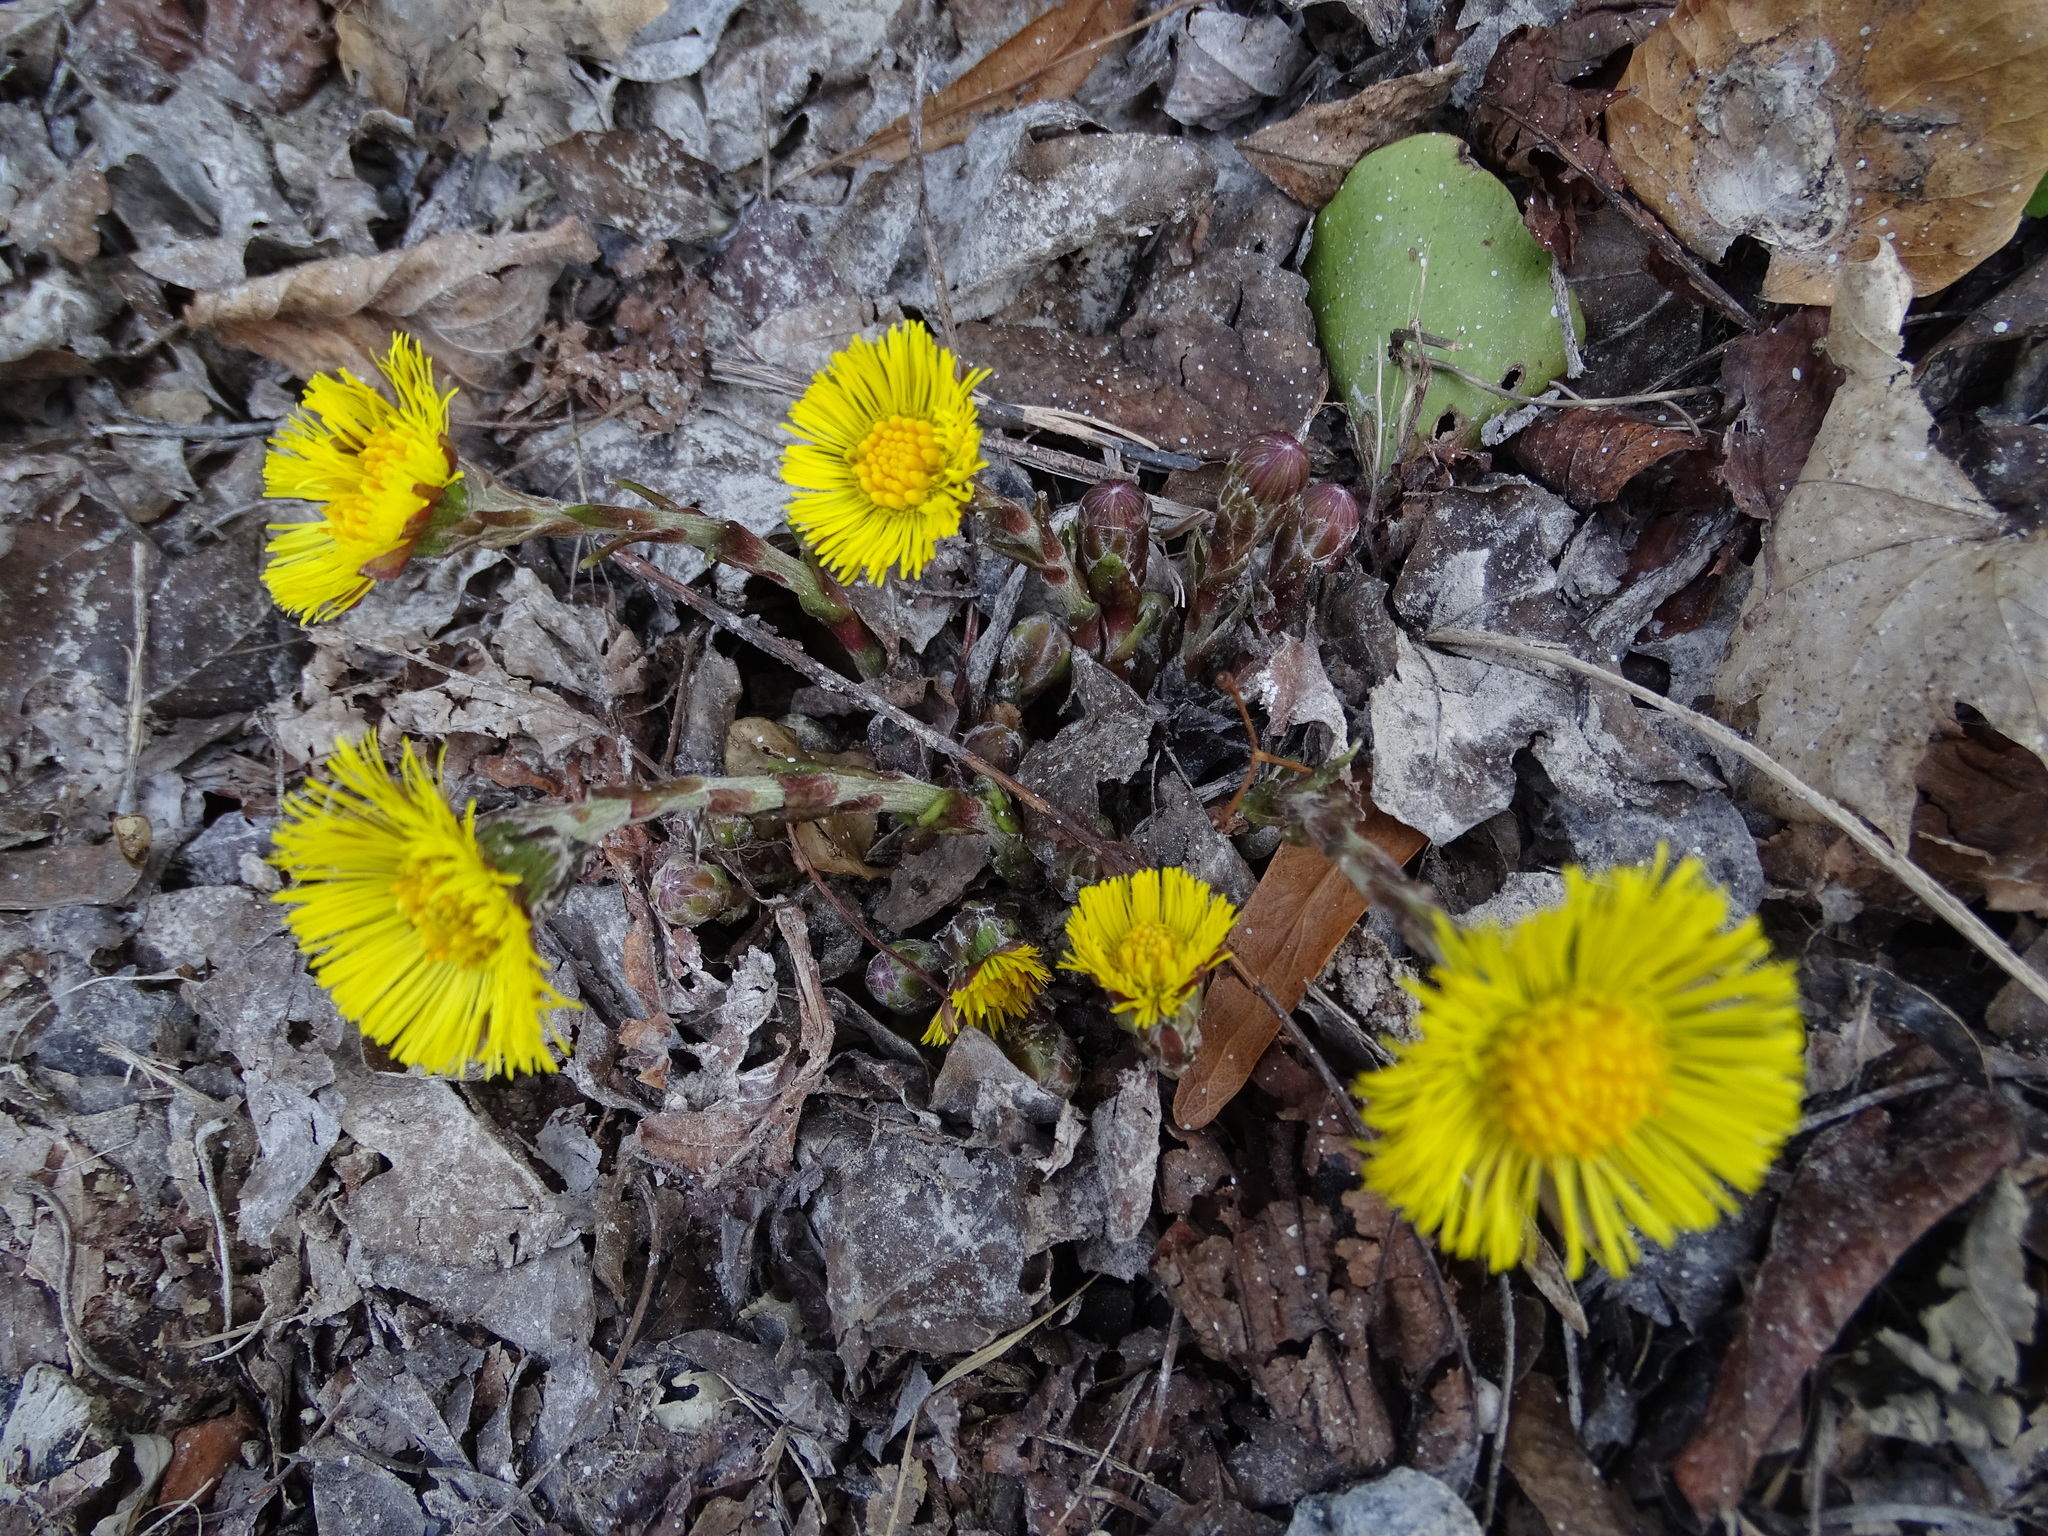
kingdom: Plantae
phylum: Tracheophyta
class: Magnoliopsida
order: Asterales
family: Asteraceae
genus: Tussilago
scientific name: Tussilago farfara
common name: Coltsfoot
